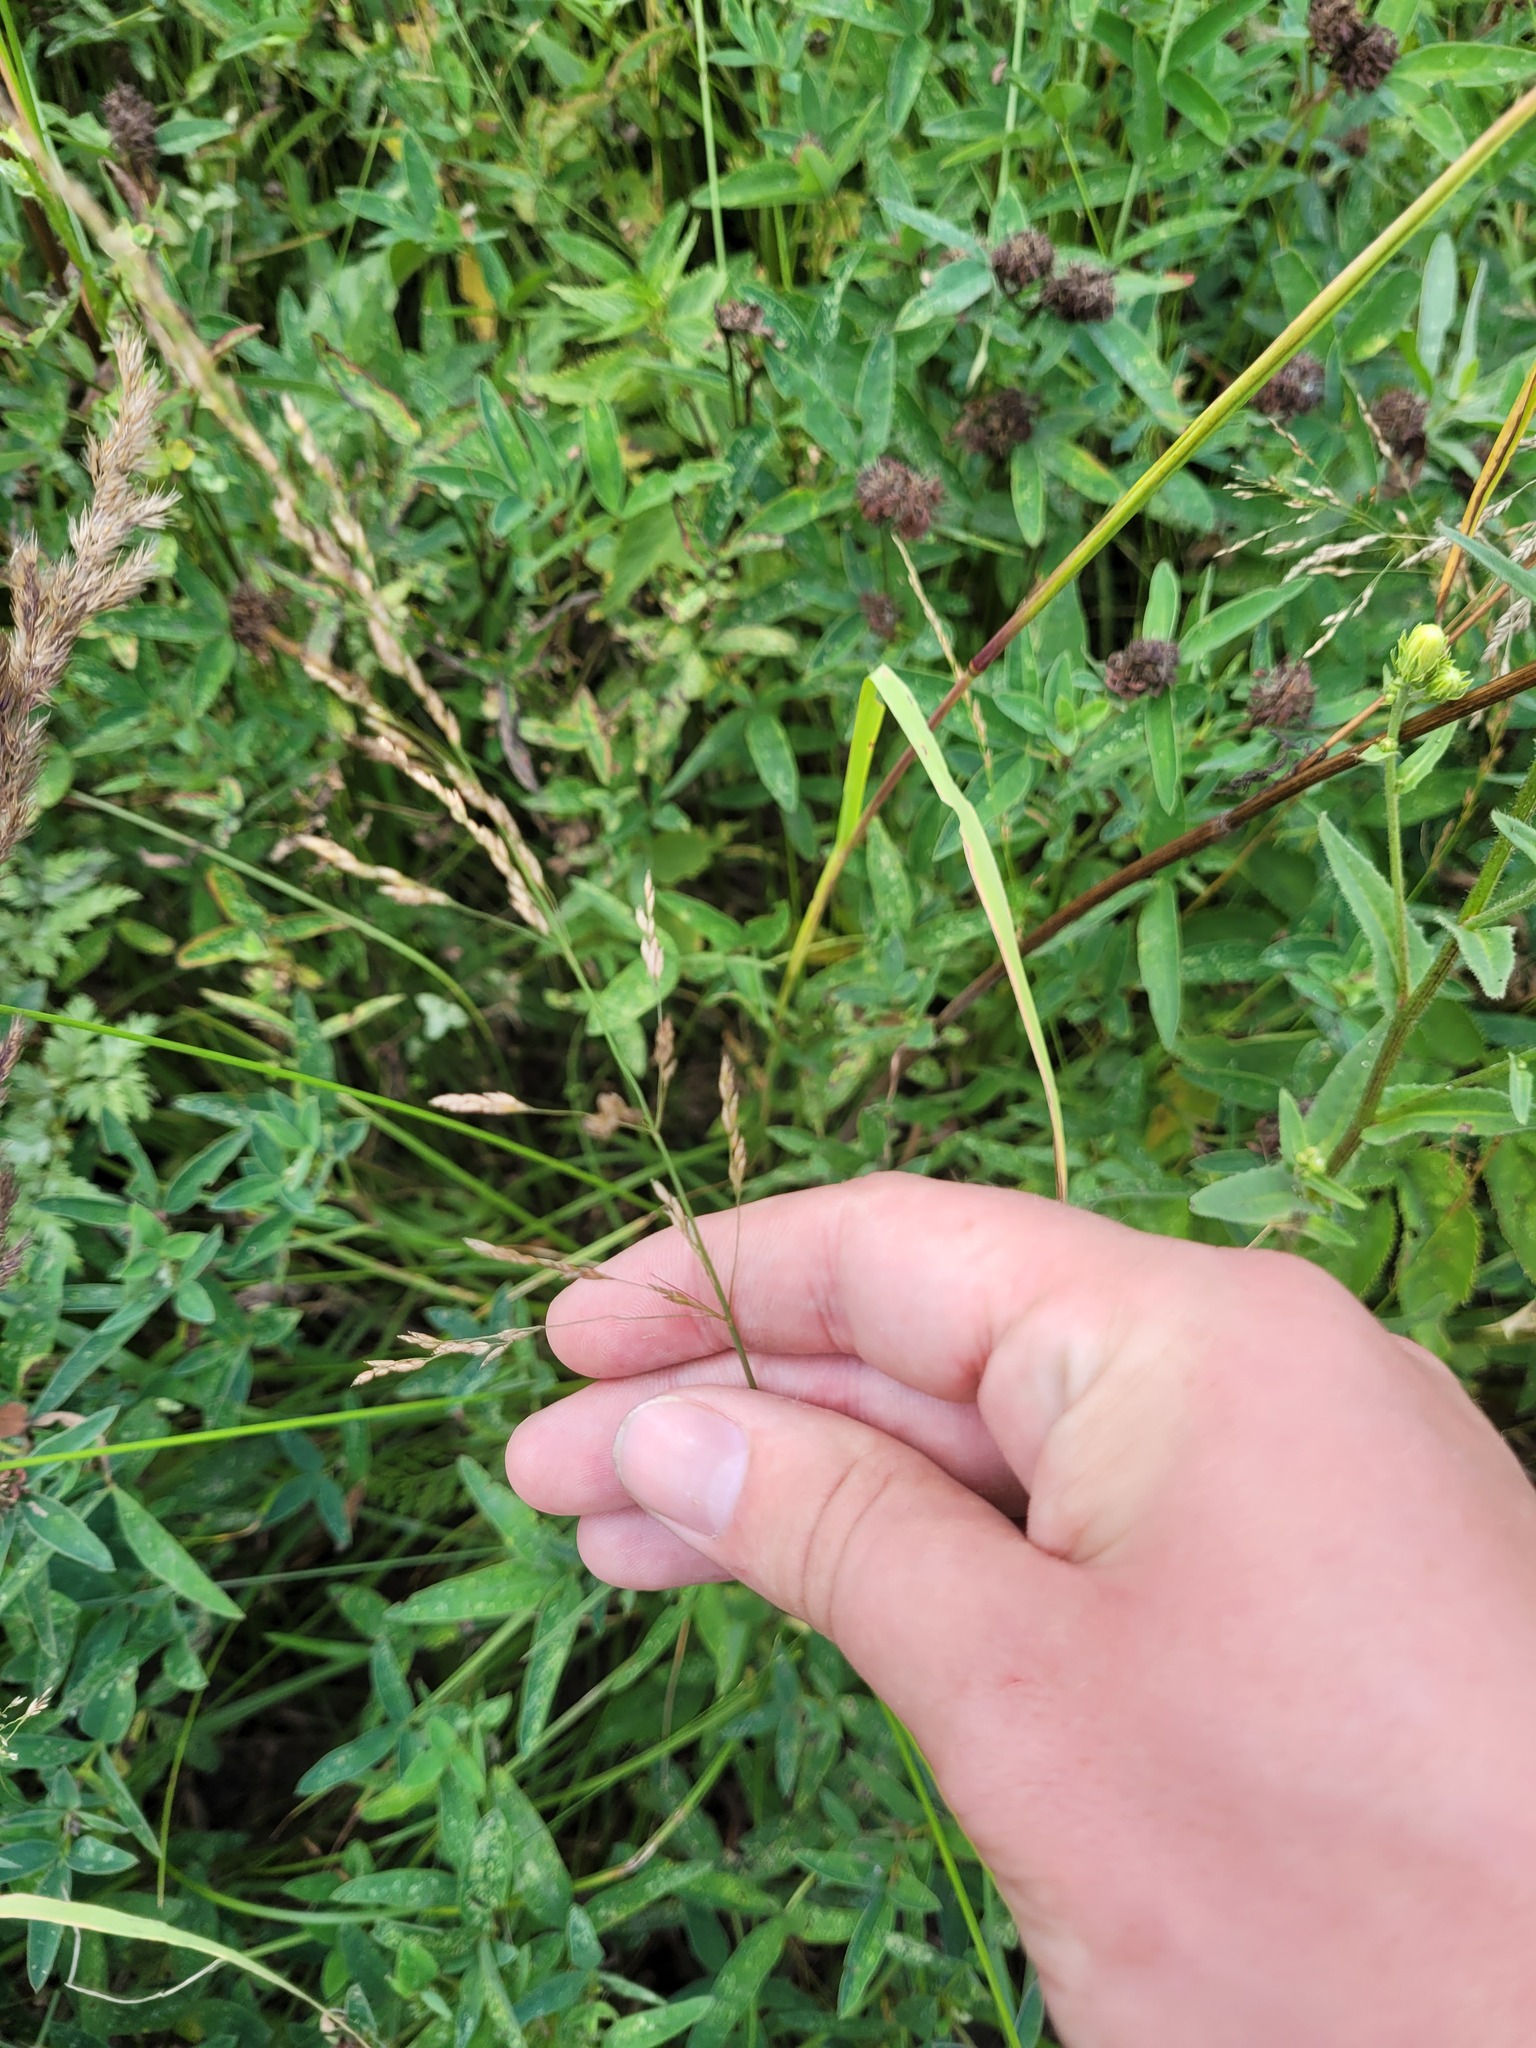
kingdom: Plantae
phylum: Tracheophyta
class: Liliopsida
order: Poales
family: Poaceae
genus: Poa
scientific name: Poa palustris
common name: Swamp meadow-grass
